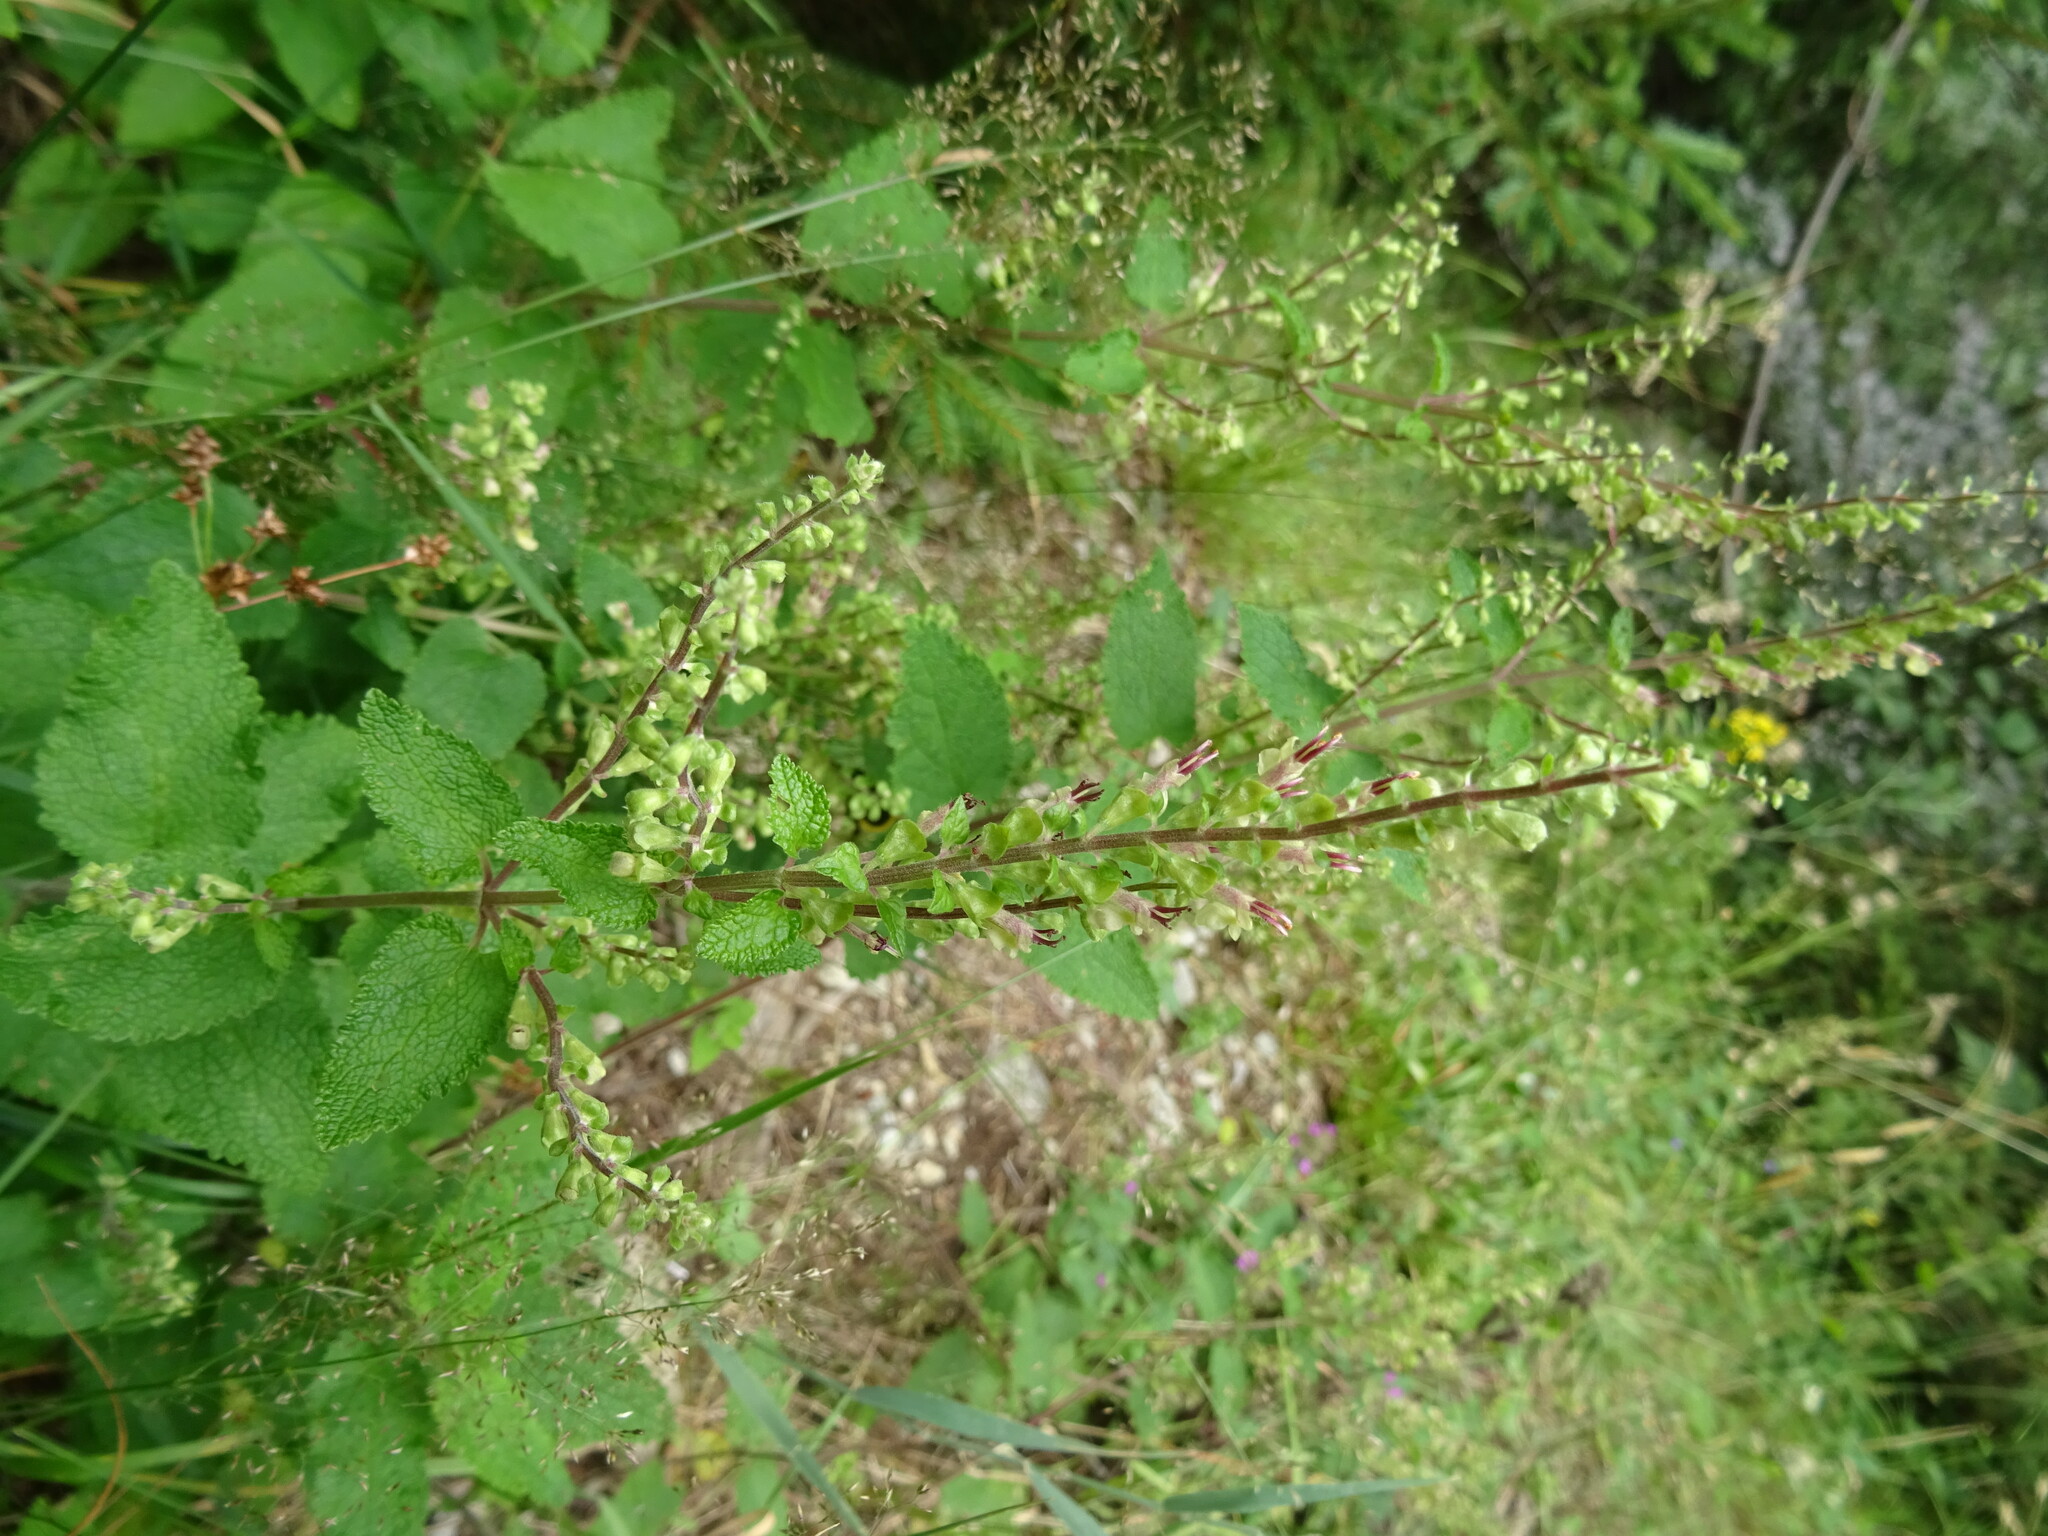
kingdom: Plantae
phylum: Tracheophyta
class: Magnoliopsida
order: Lamiales
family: Lamiaceae
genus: Teucrium
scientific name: Teucrium scorodonia
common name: Woodland germander
